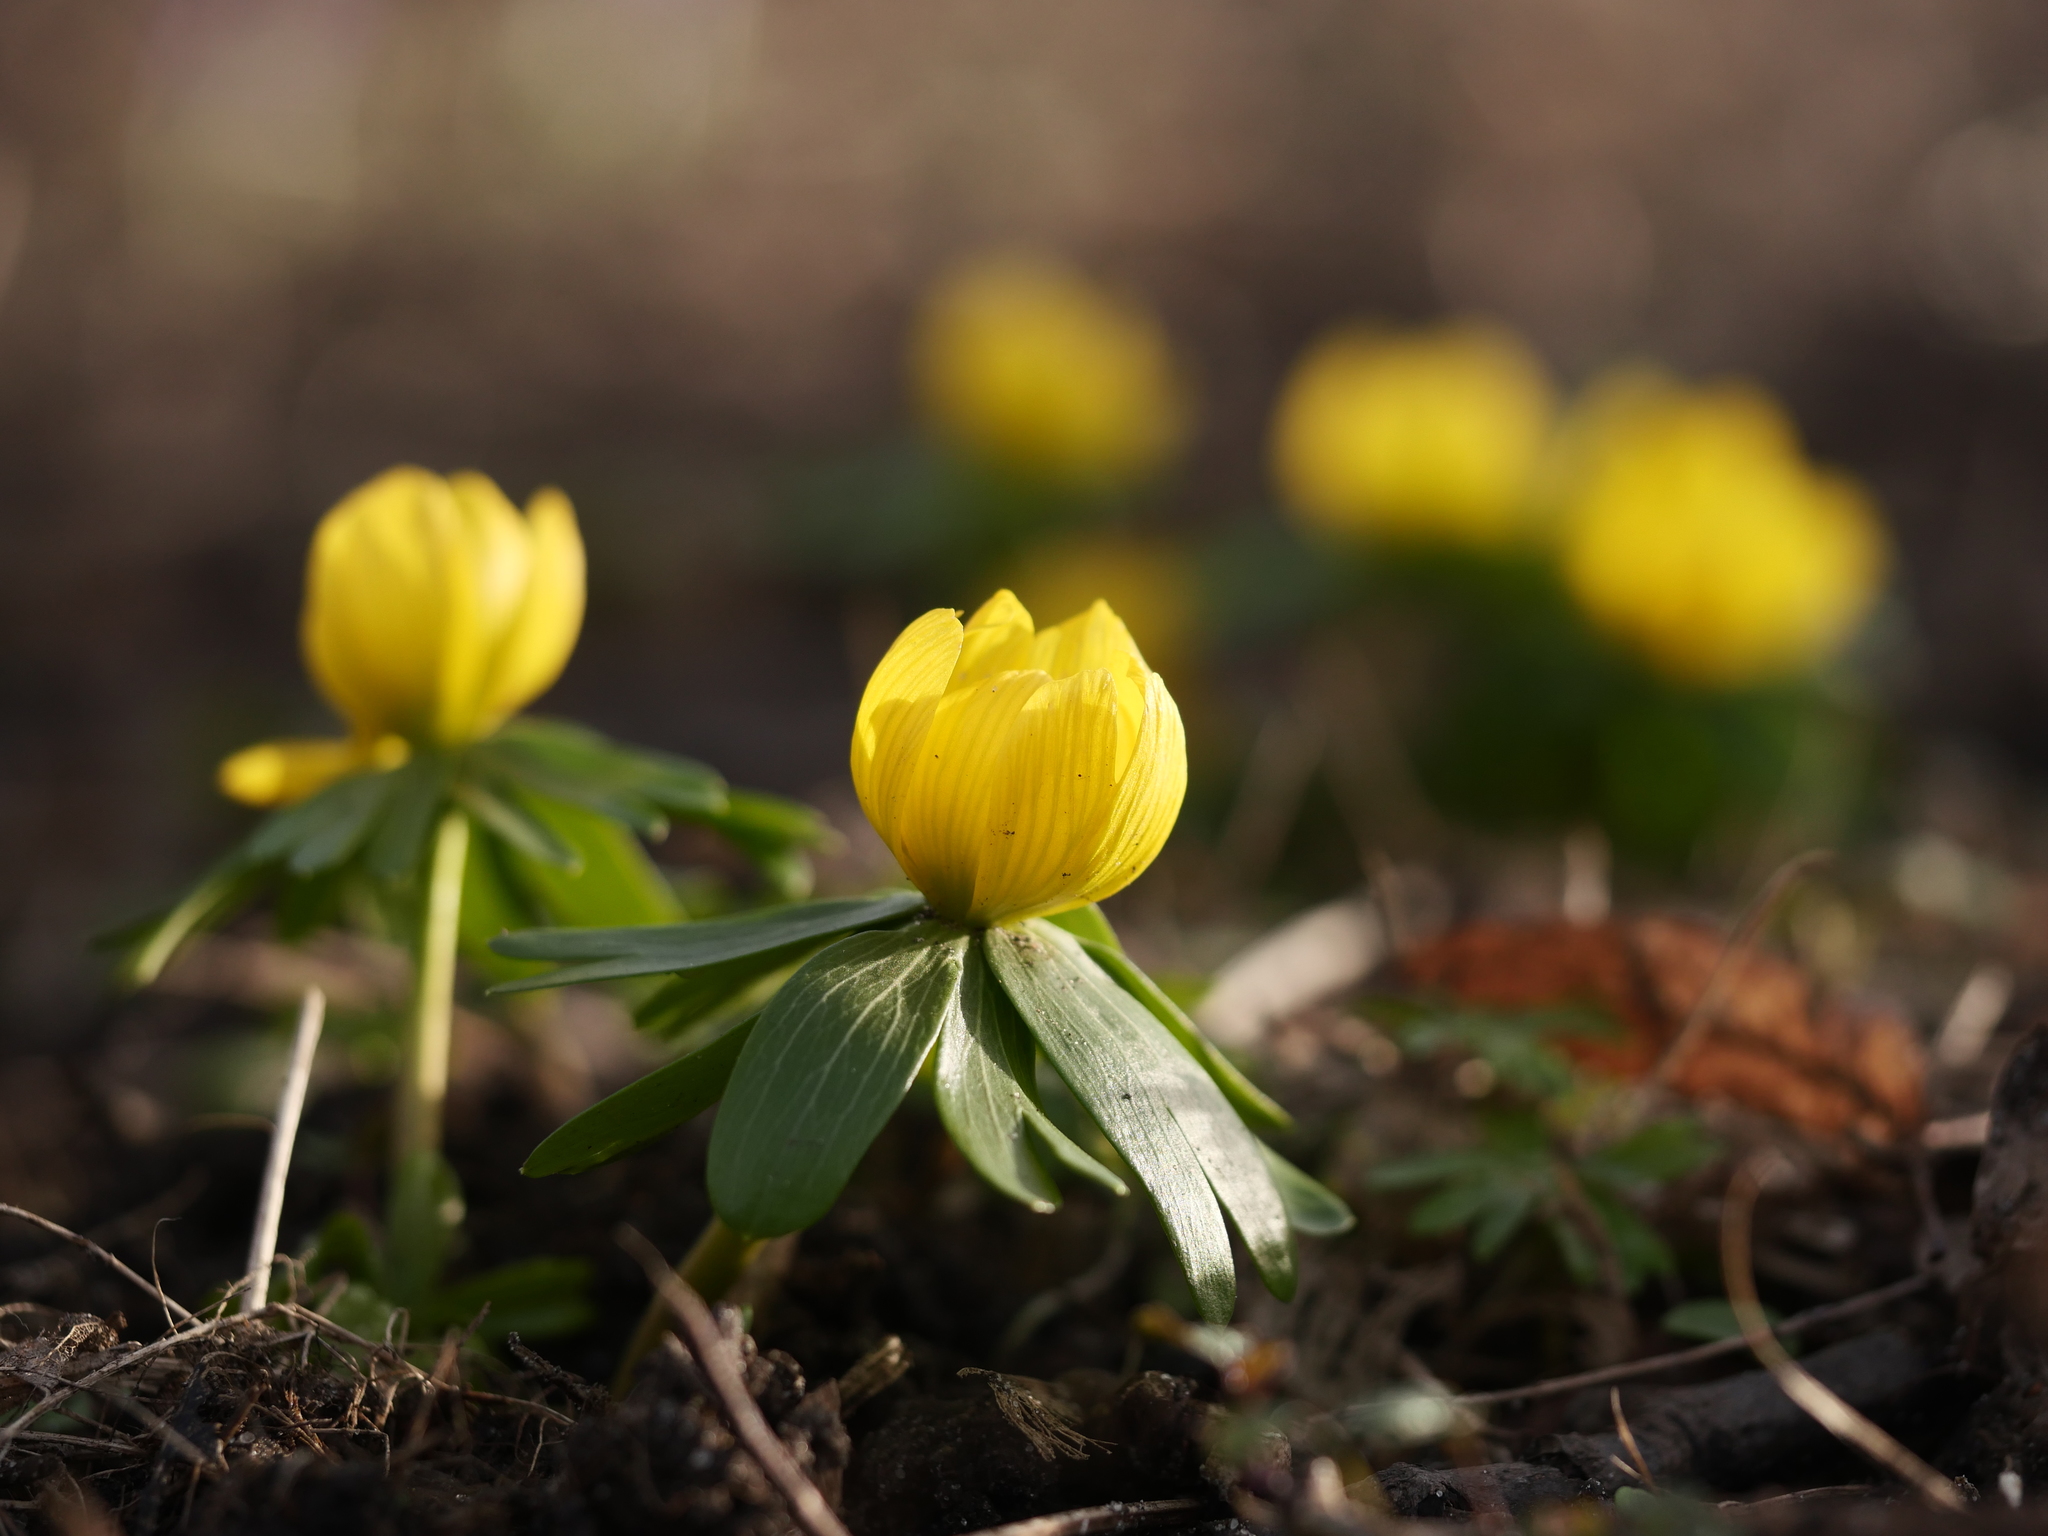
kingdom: Plantae
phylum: Tracheophyta
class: Magnoliopsida
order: Ranunculales
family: Ranunculaceae
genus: Eranthis
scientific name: Eranthis hyemalis
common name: Winter aconite
